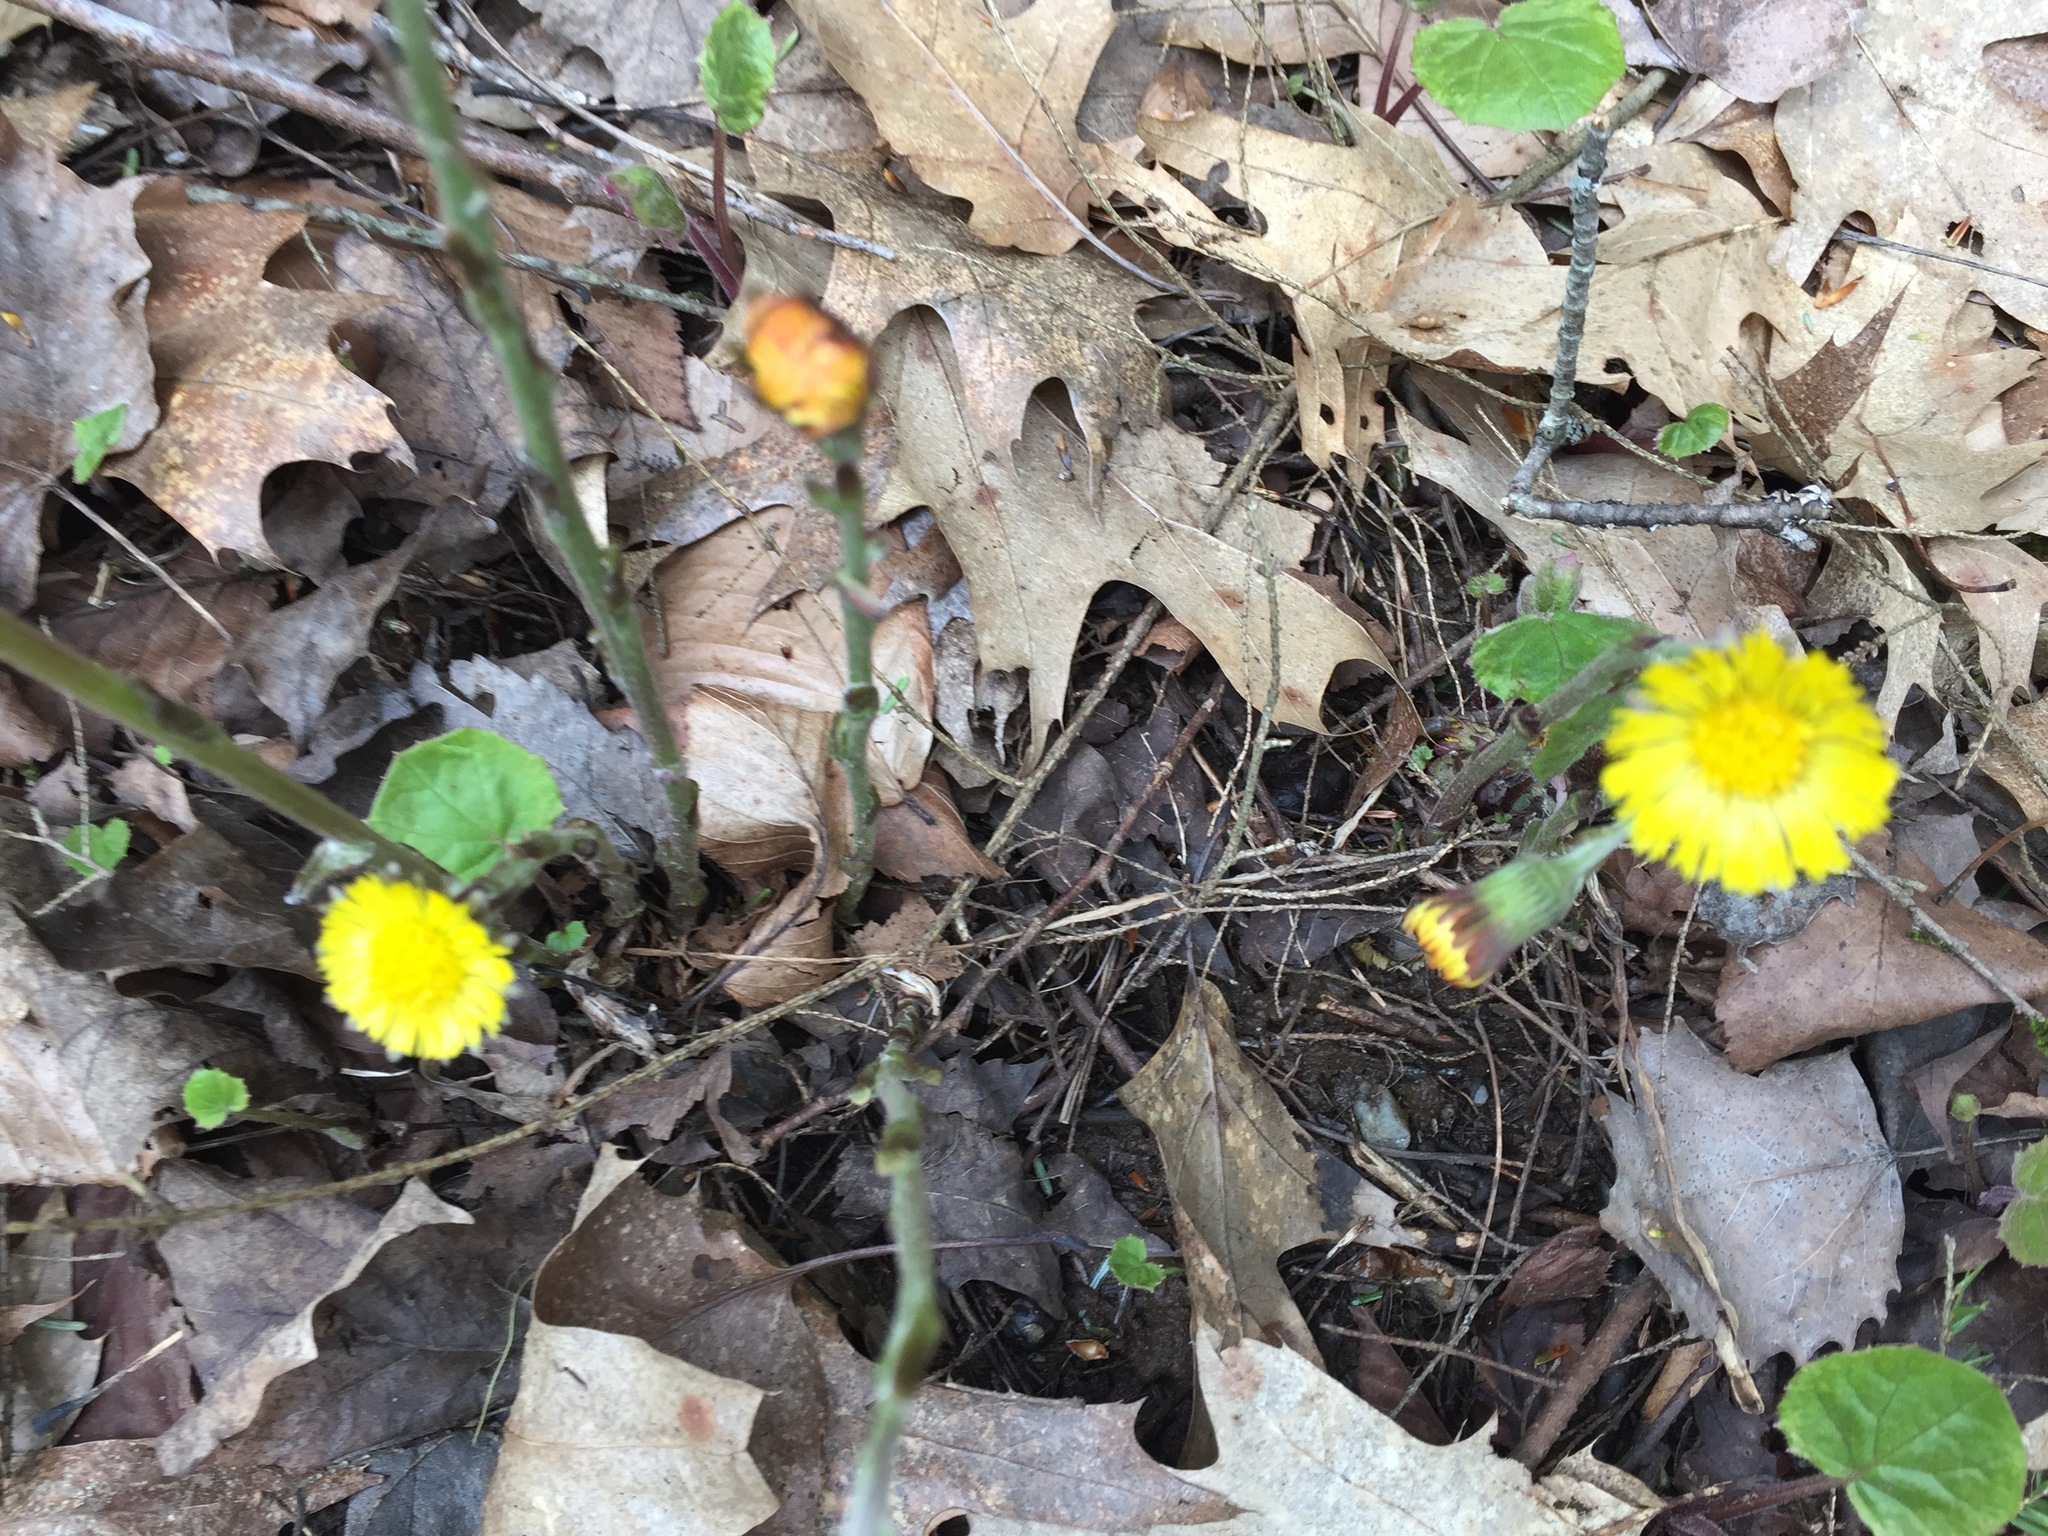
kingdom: Plantae
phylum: Tracheophyta
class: Magnoliopsida
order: Asterales
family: Asteraceae
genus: Tussilago
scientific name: Tussilago farfara
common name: Coltsfoot
